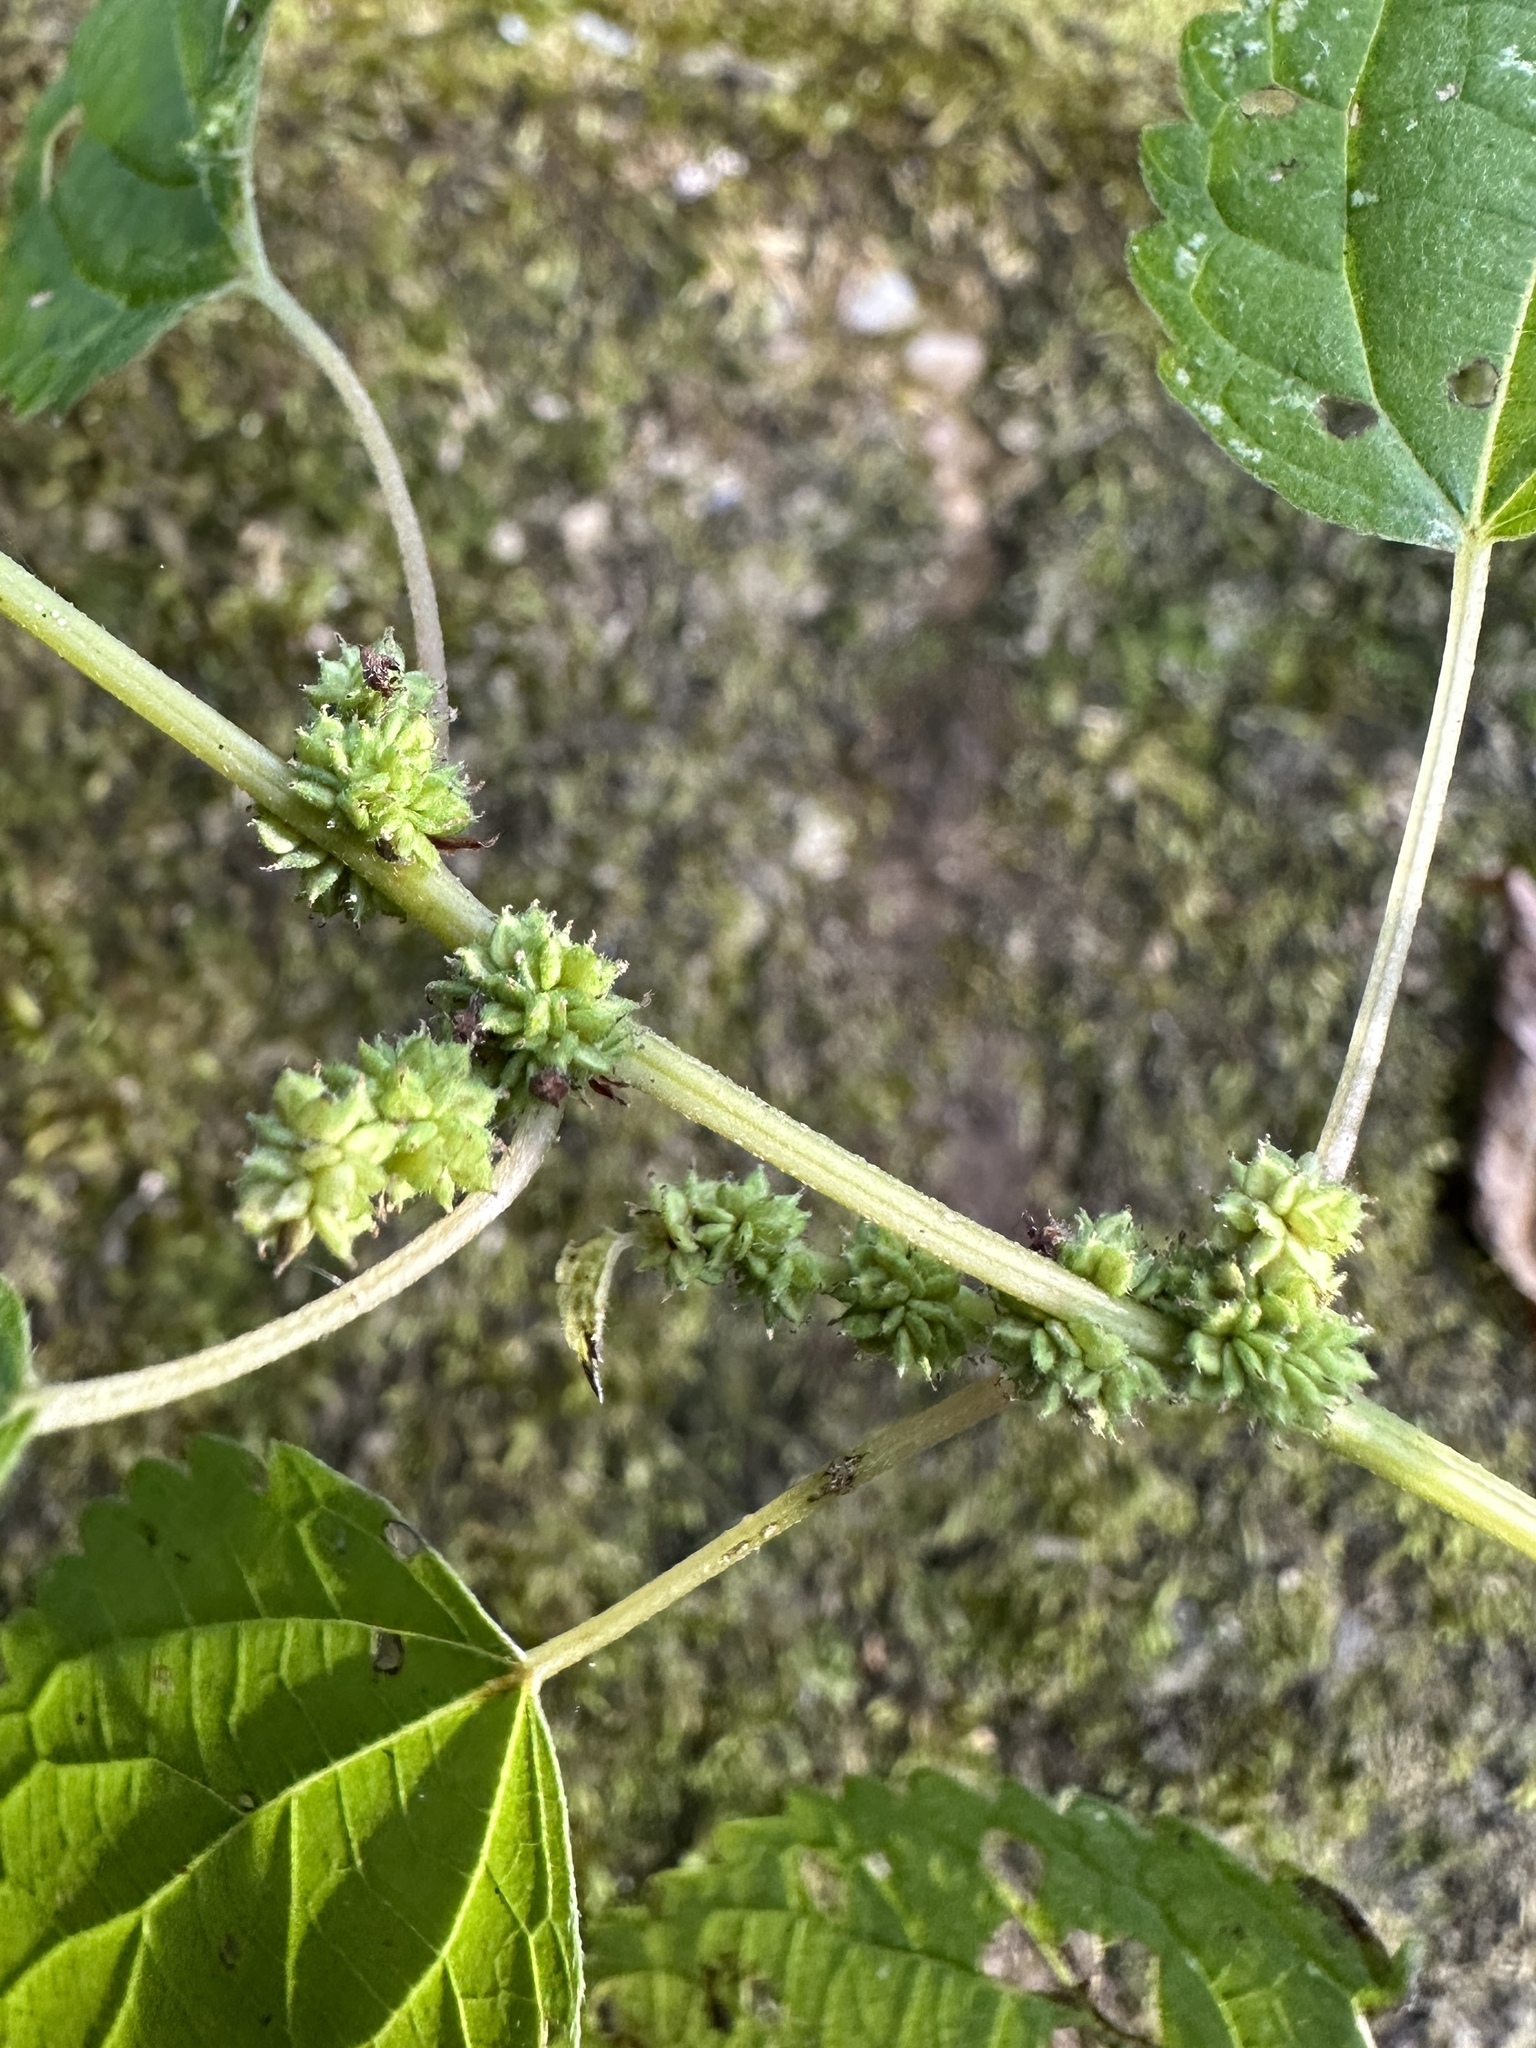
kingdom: Plantae
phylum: Tracheophyta
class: Magnoliopsida
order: Rosales
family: Urticaceae
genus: Boehmeria
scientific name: Boehmeria cylindrica
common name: Bog-hemp
